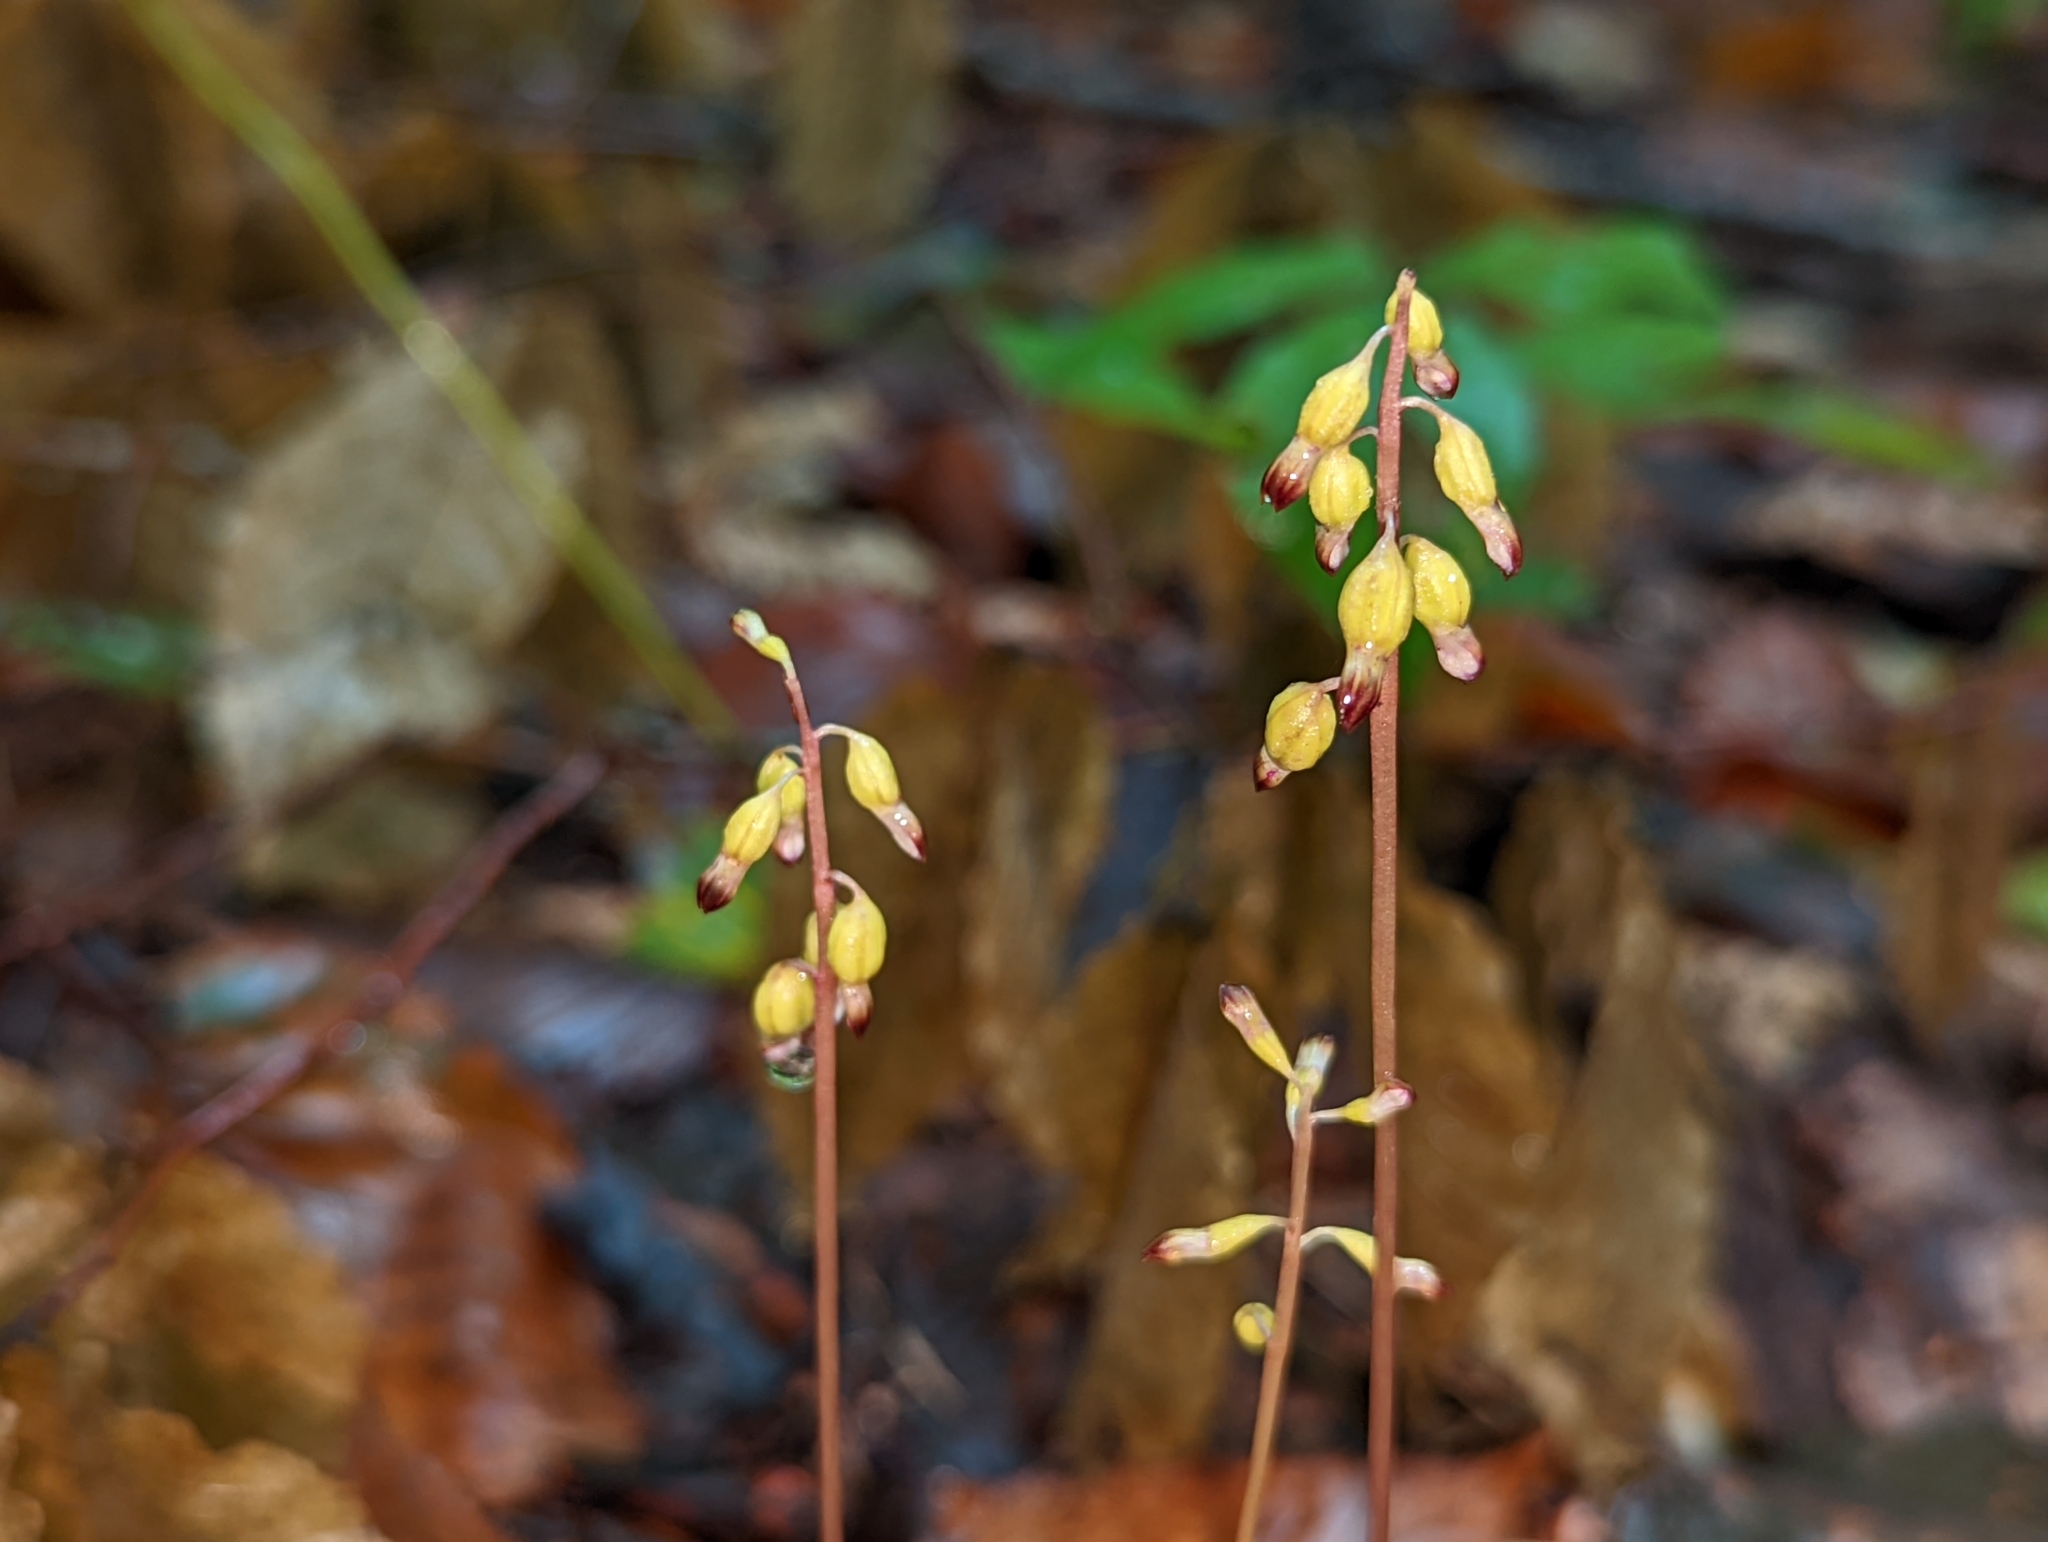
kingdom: Plantae
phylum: Tracheophyta
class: Liliopsida
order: Asparagales
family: Orchidaceae
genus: Corallorhiza
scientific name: Corallorhiza odontorhiza
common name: Autumn coralroot
